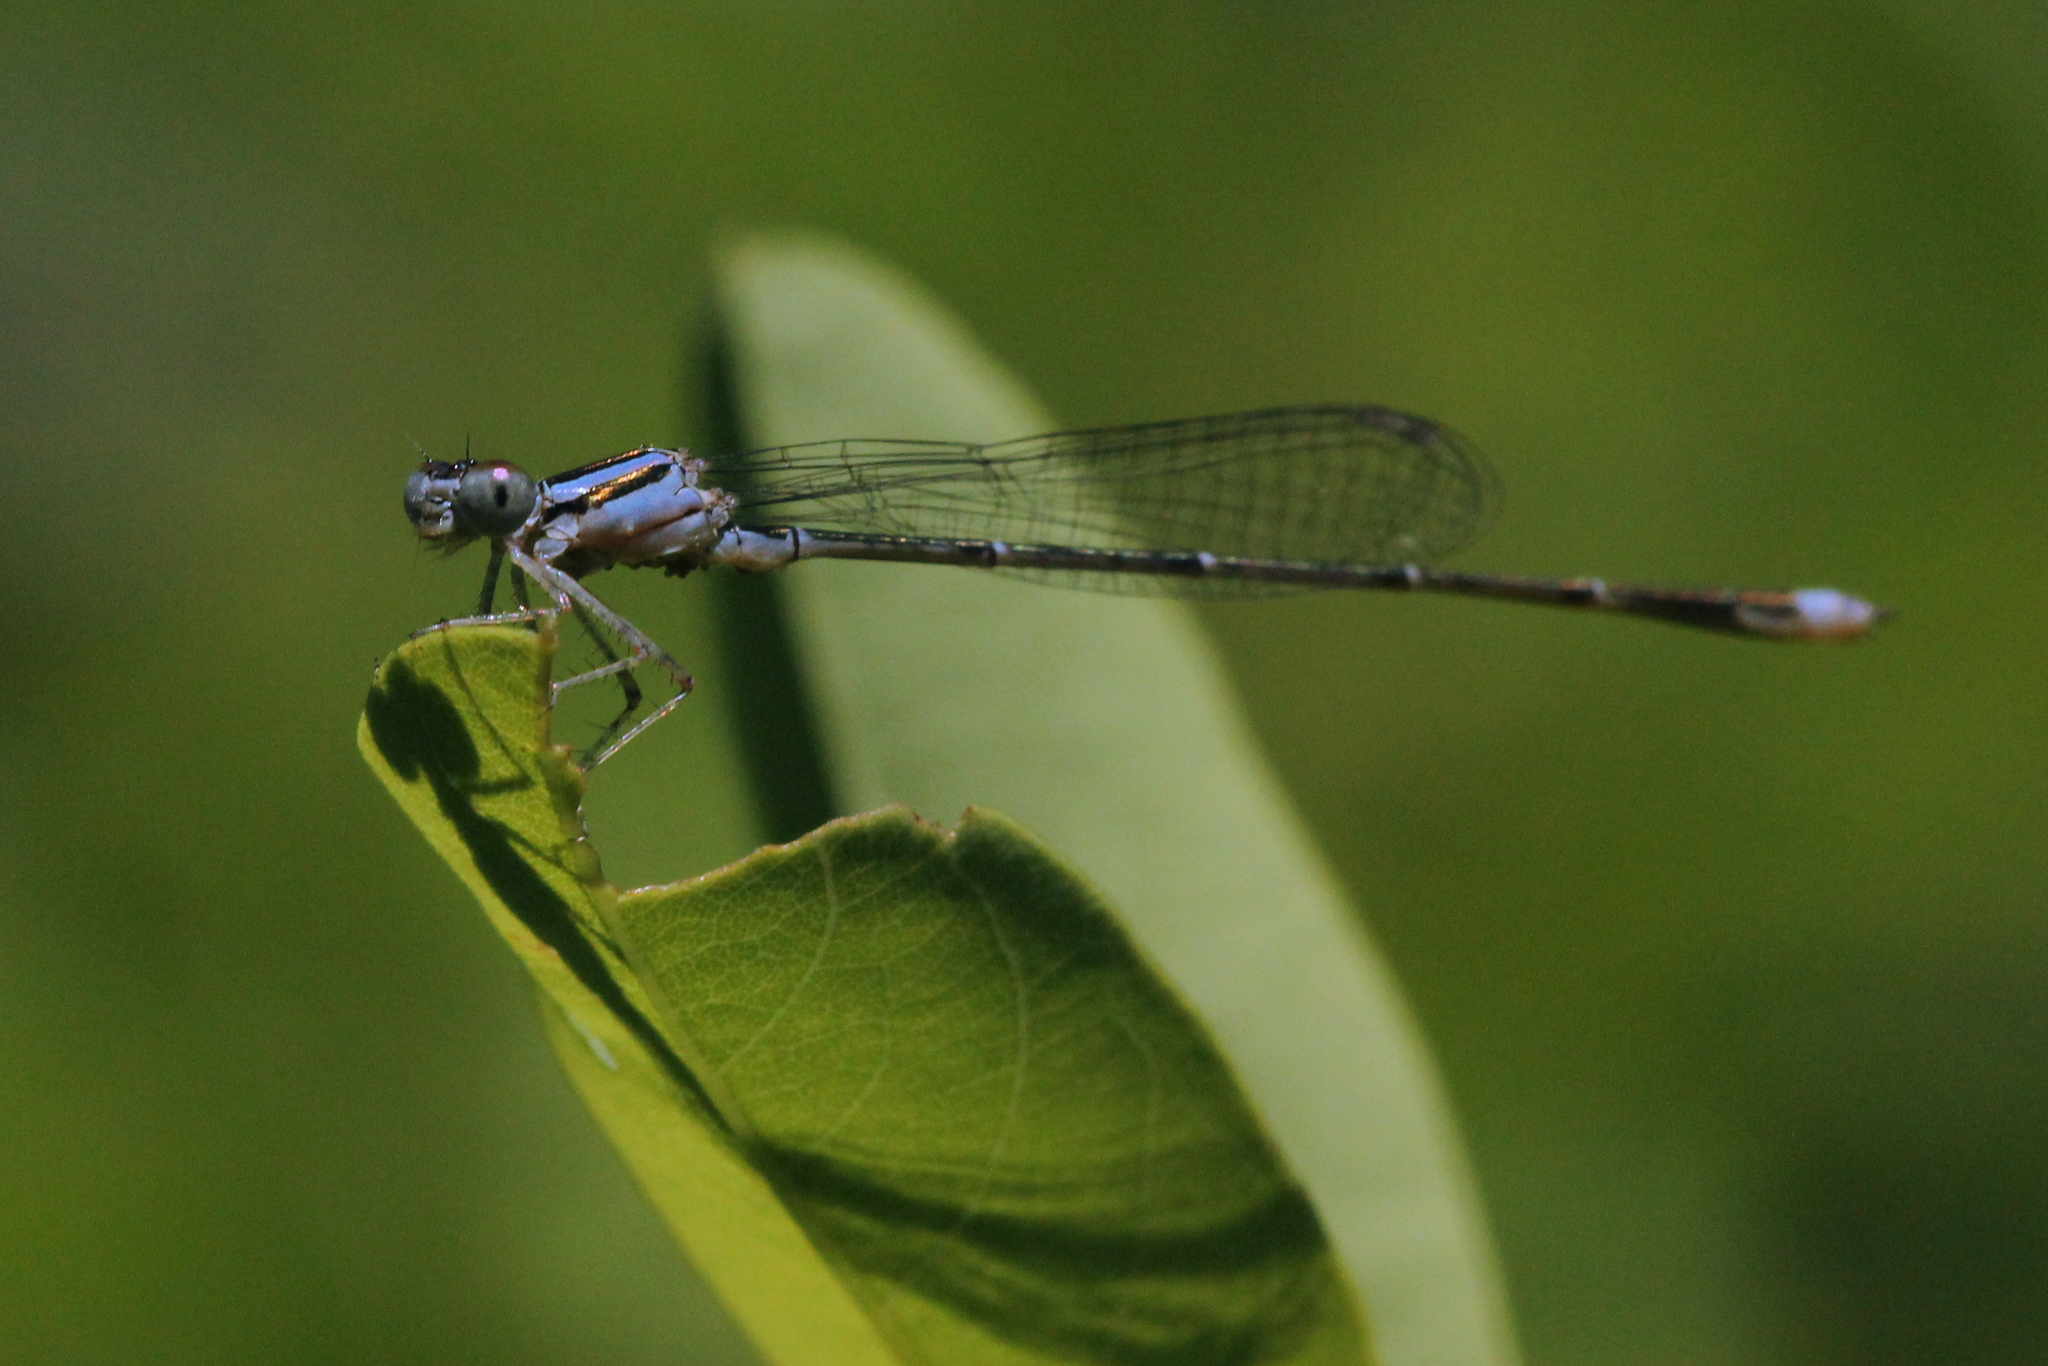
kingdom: Animalia
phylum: Arthropoda
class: Insecta
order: Odonata
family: Coenagrionidae
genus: Enallagma
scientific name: Enallagma signatum
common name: Orange bluet
